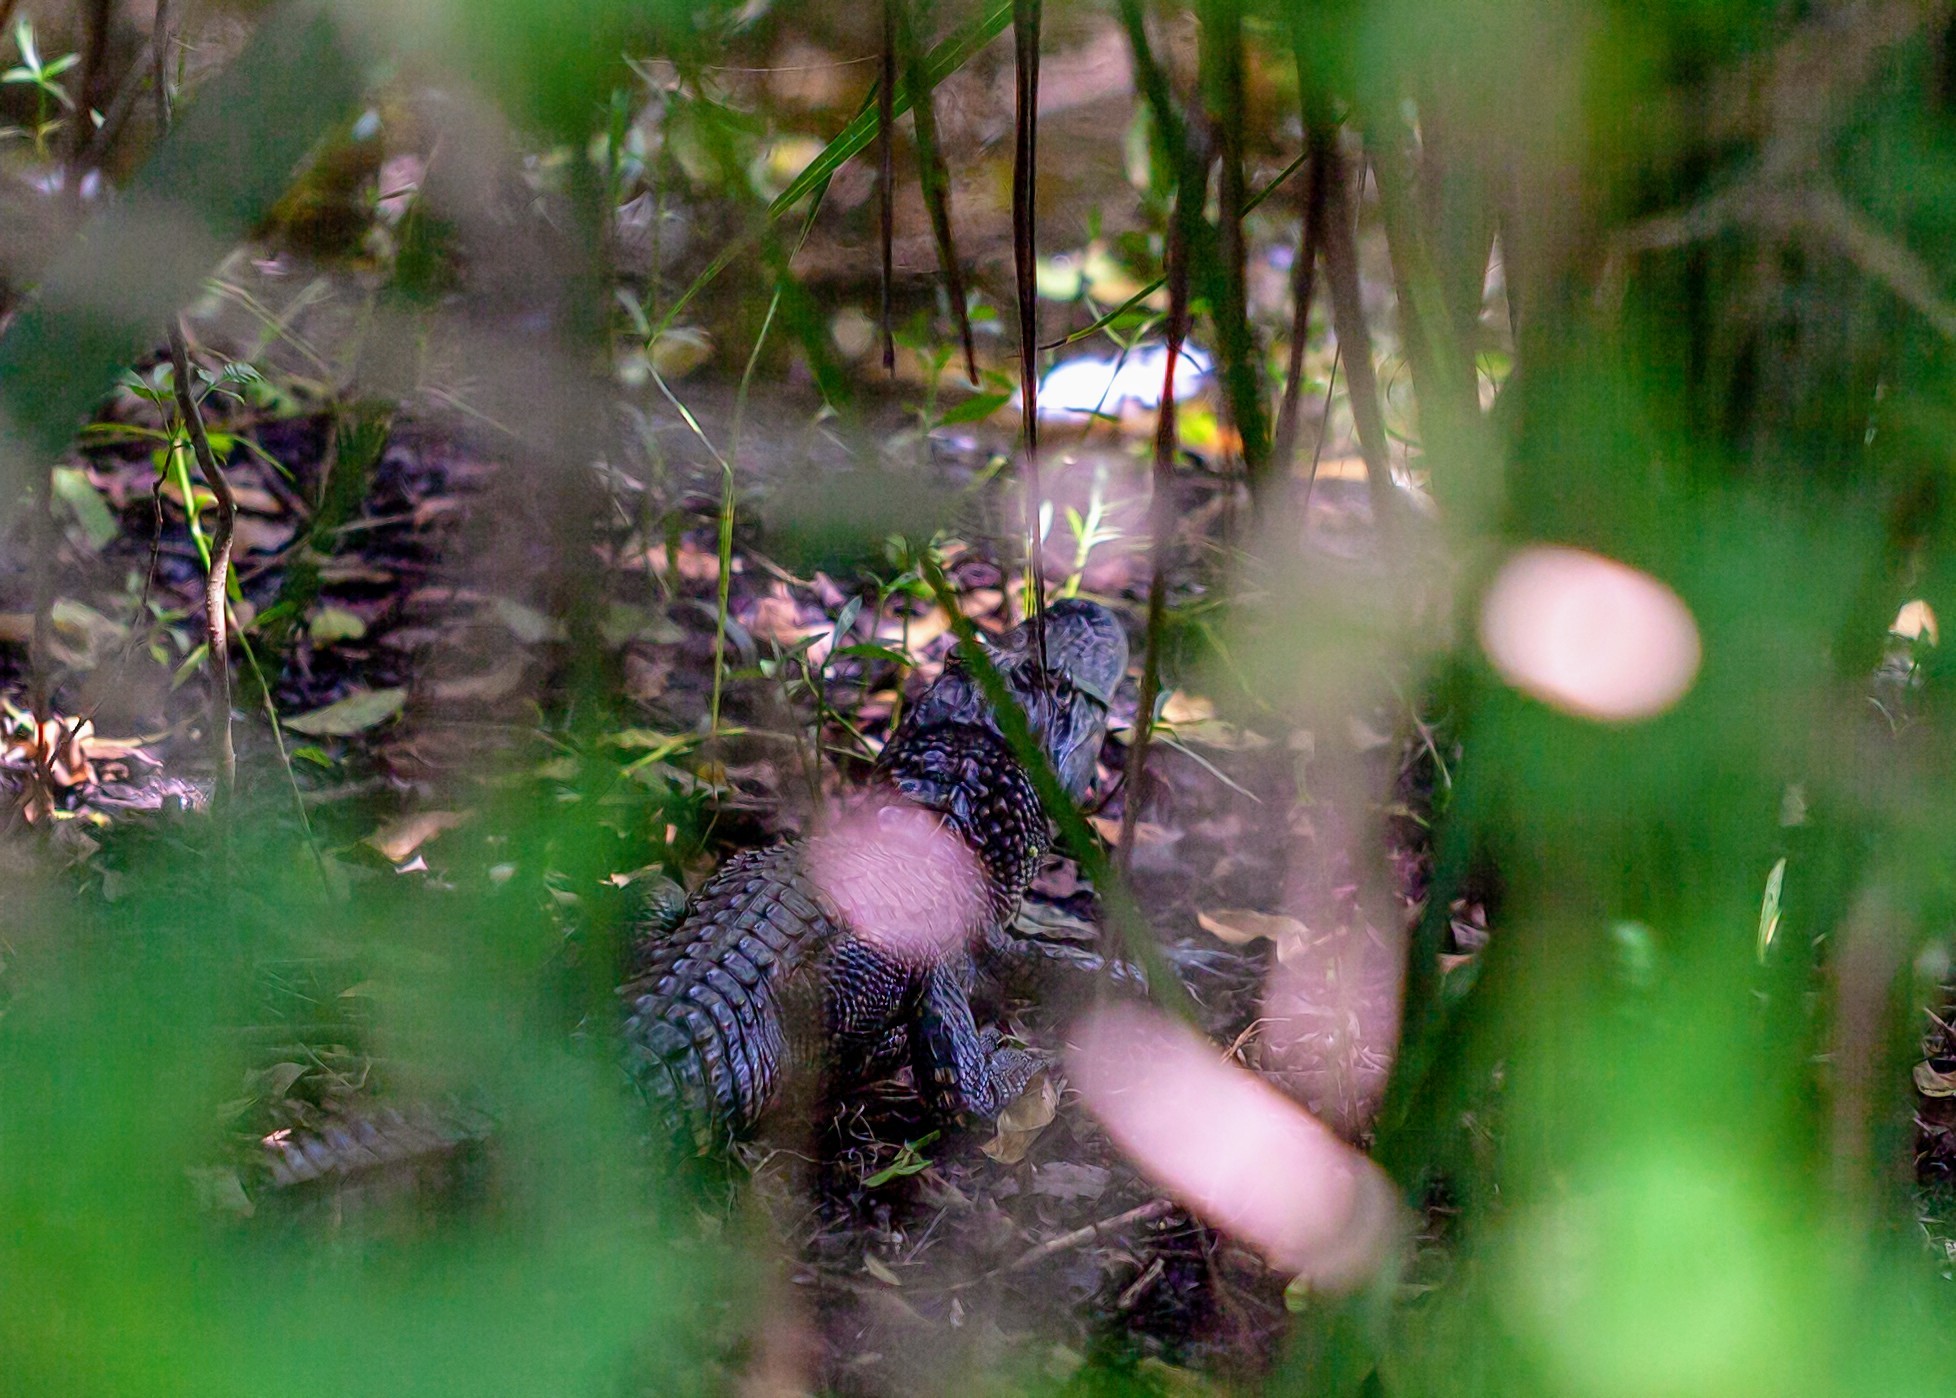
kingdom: Animalia
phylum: Chordata
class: Crocodylia
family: Alligatoridae
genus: Alligator
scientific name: Alligator mississippiensis
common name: American alligator
